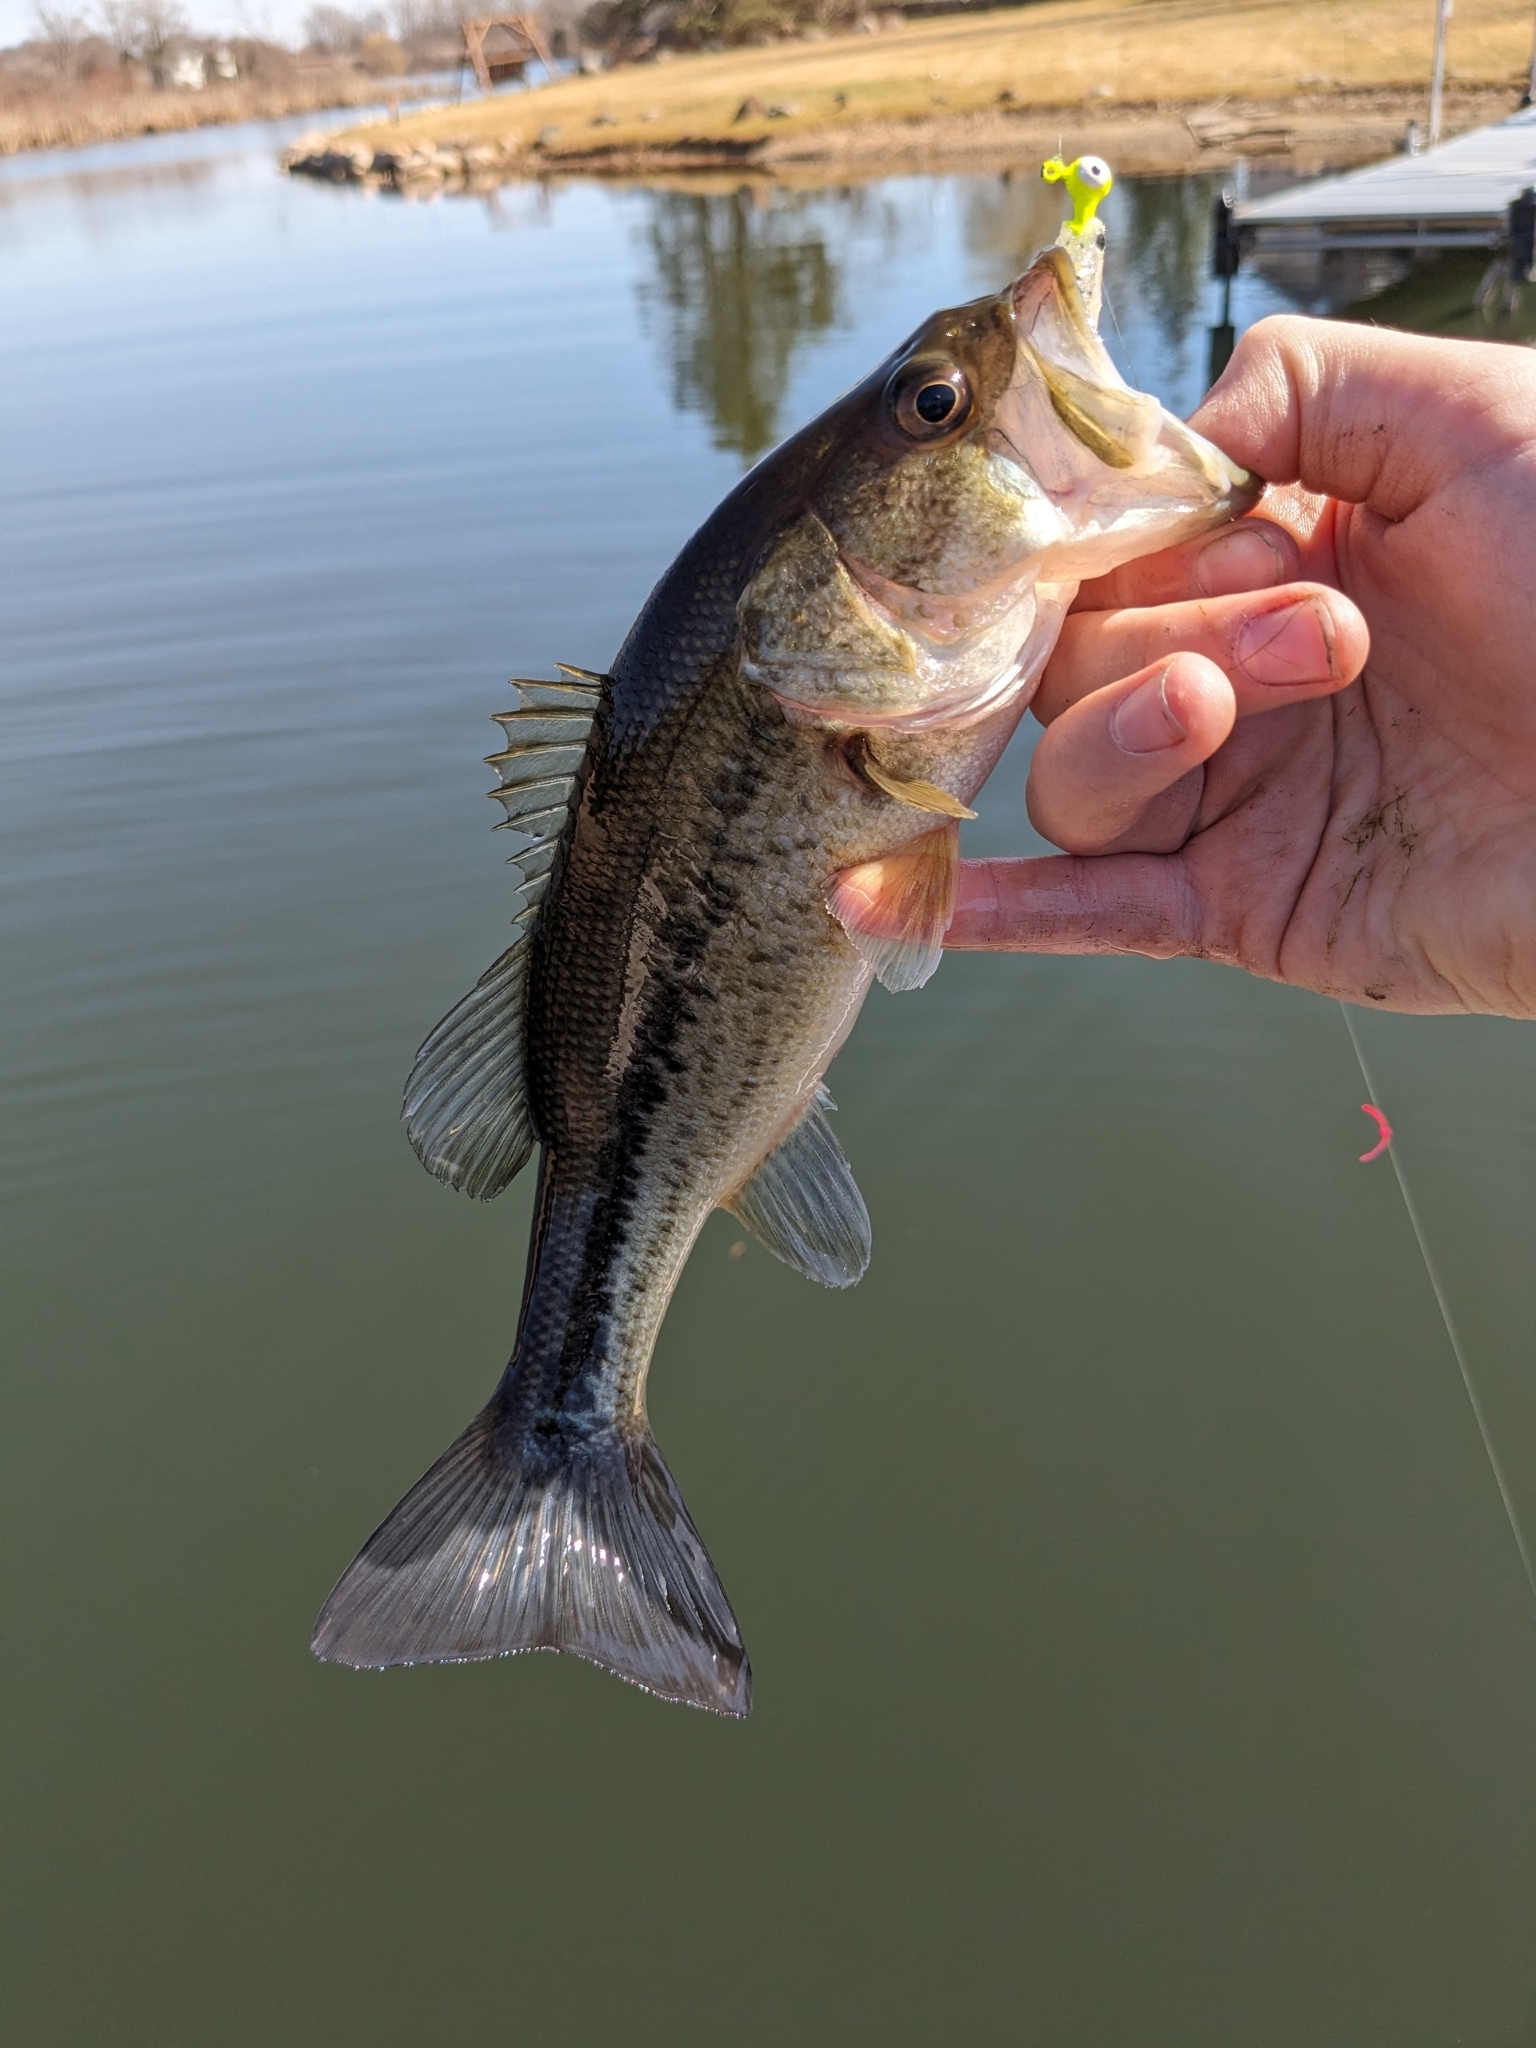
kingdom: Animalia
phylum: Chordata
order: Perciformes
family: Centrarchidae
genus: Micropterus
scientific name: Micropterus
